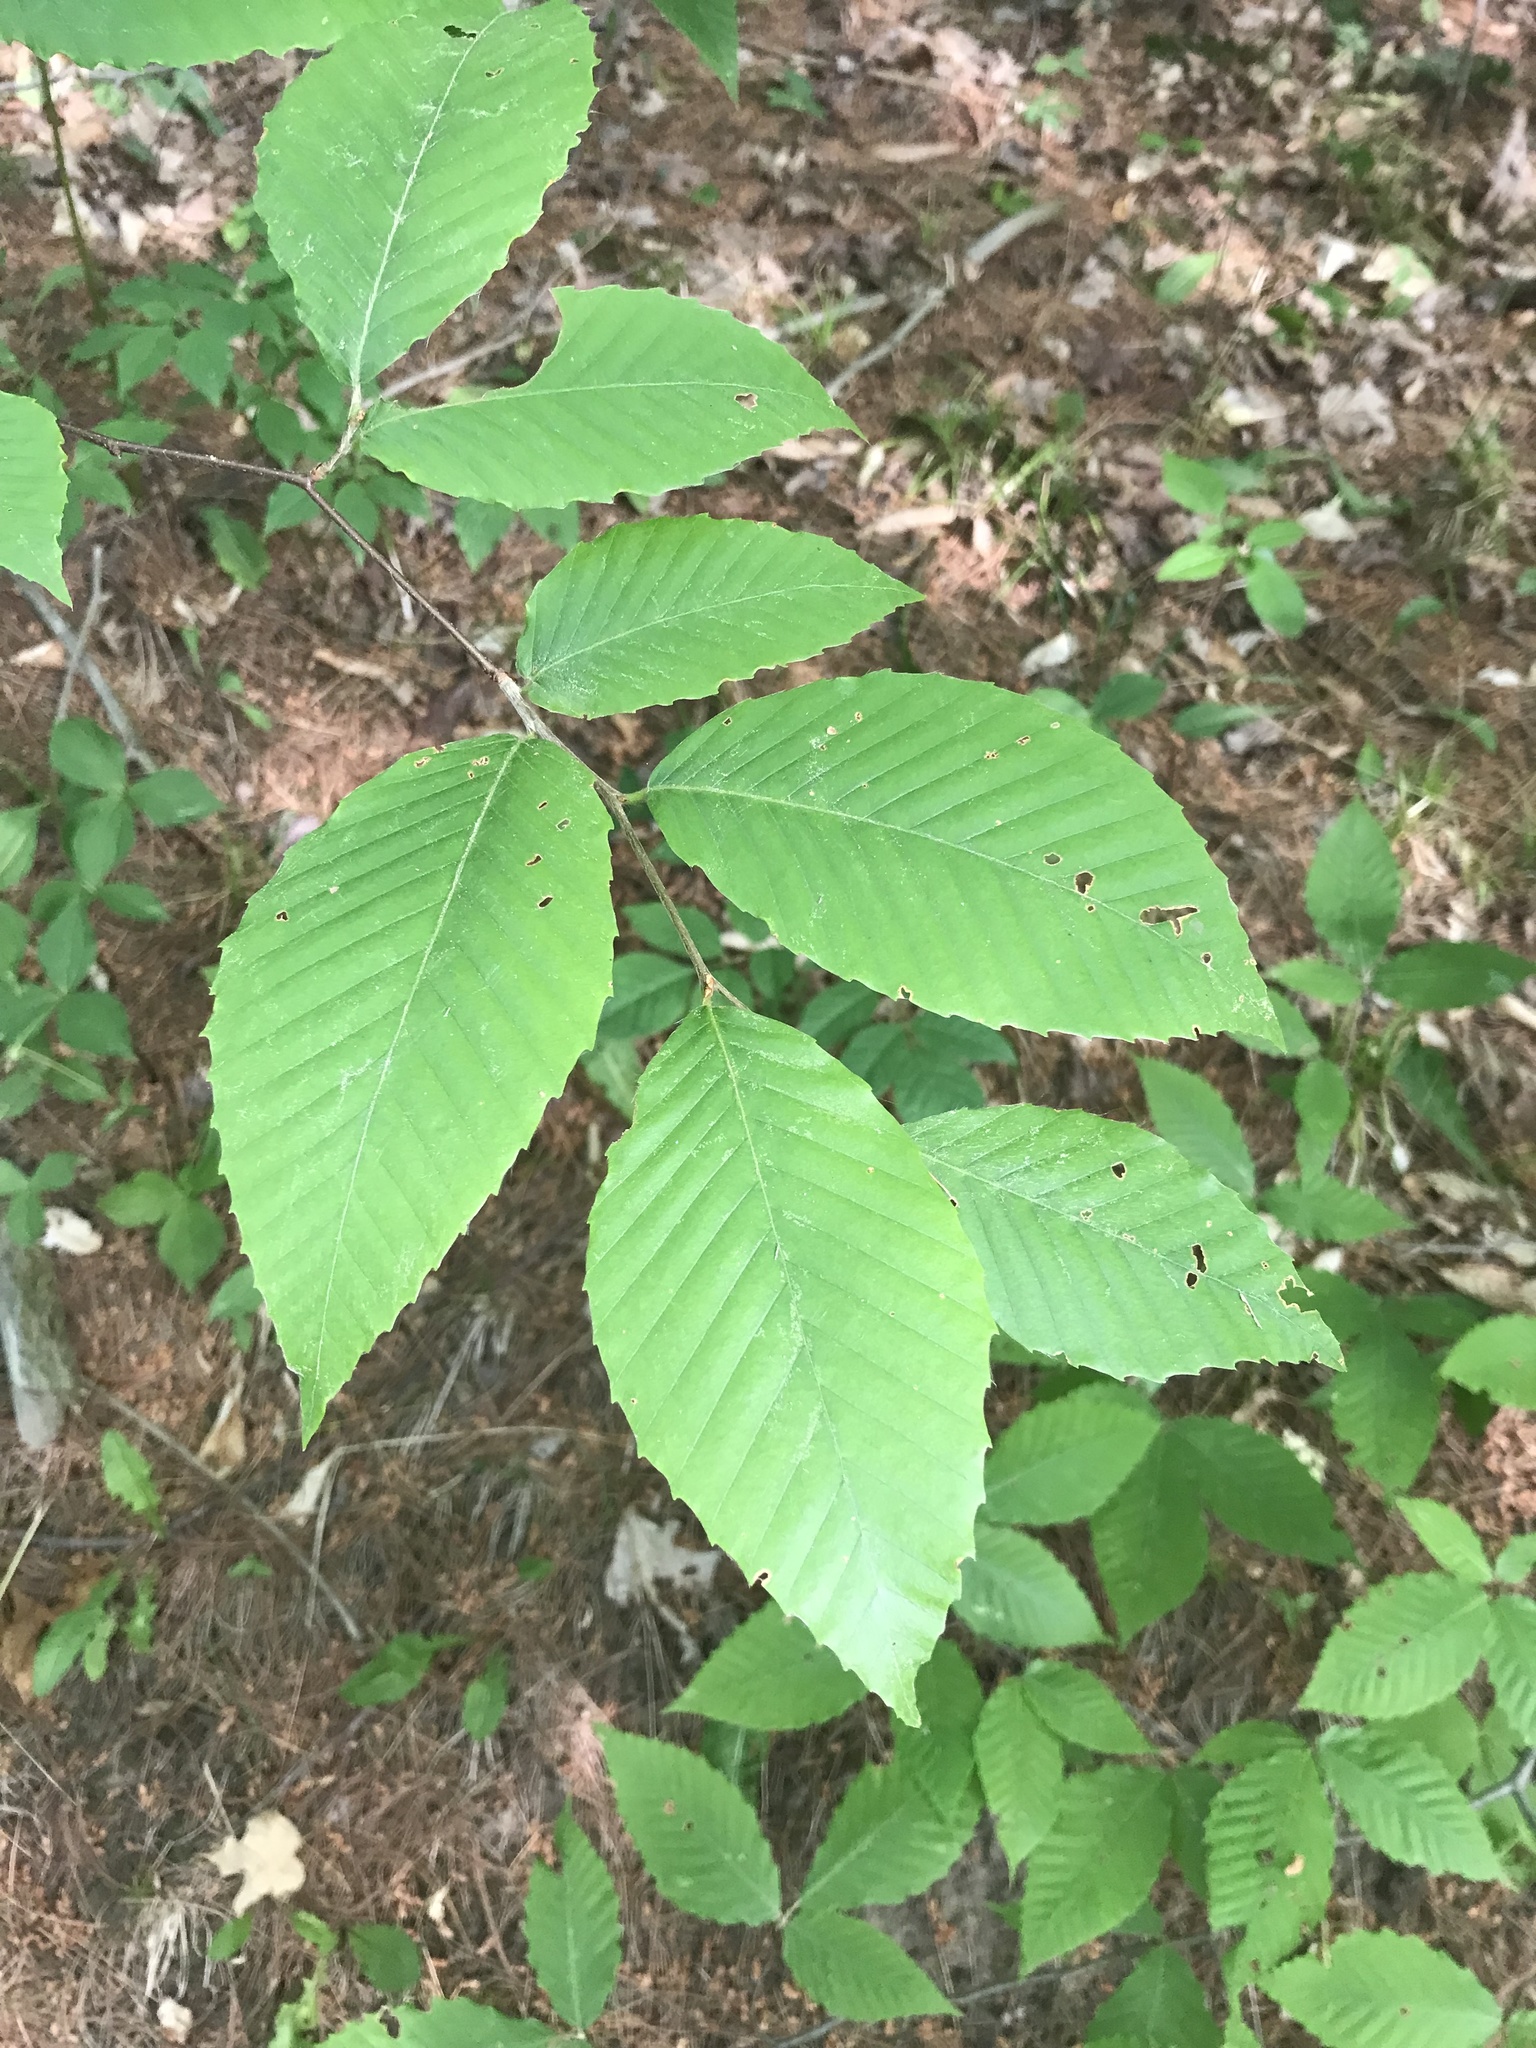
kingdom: Plantae
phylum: Tracheophyta
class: Magnoliopsida
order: Fagales
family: Fagaceae
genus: Fagus
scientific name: Fagus grandifolia
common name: American beech
